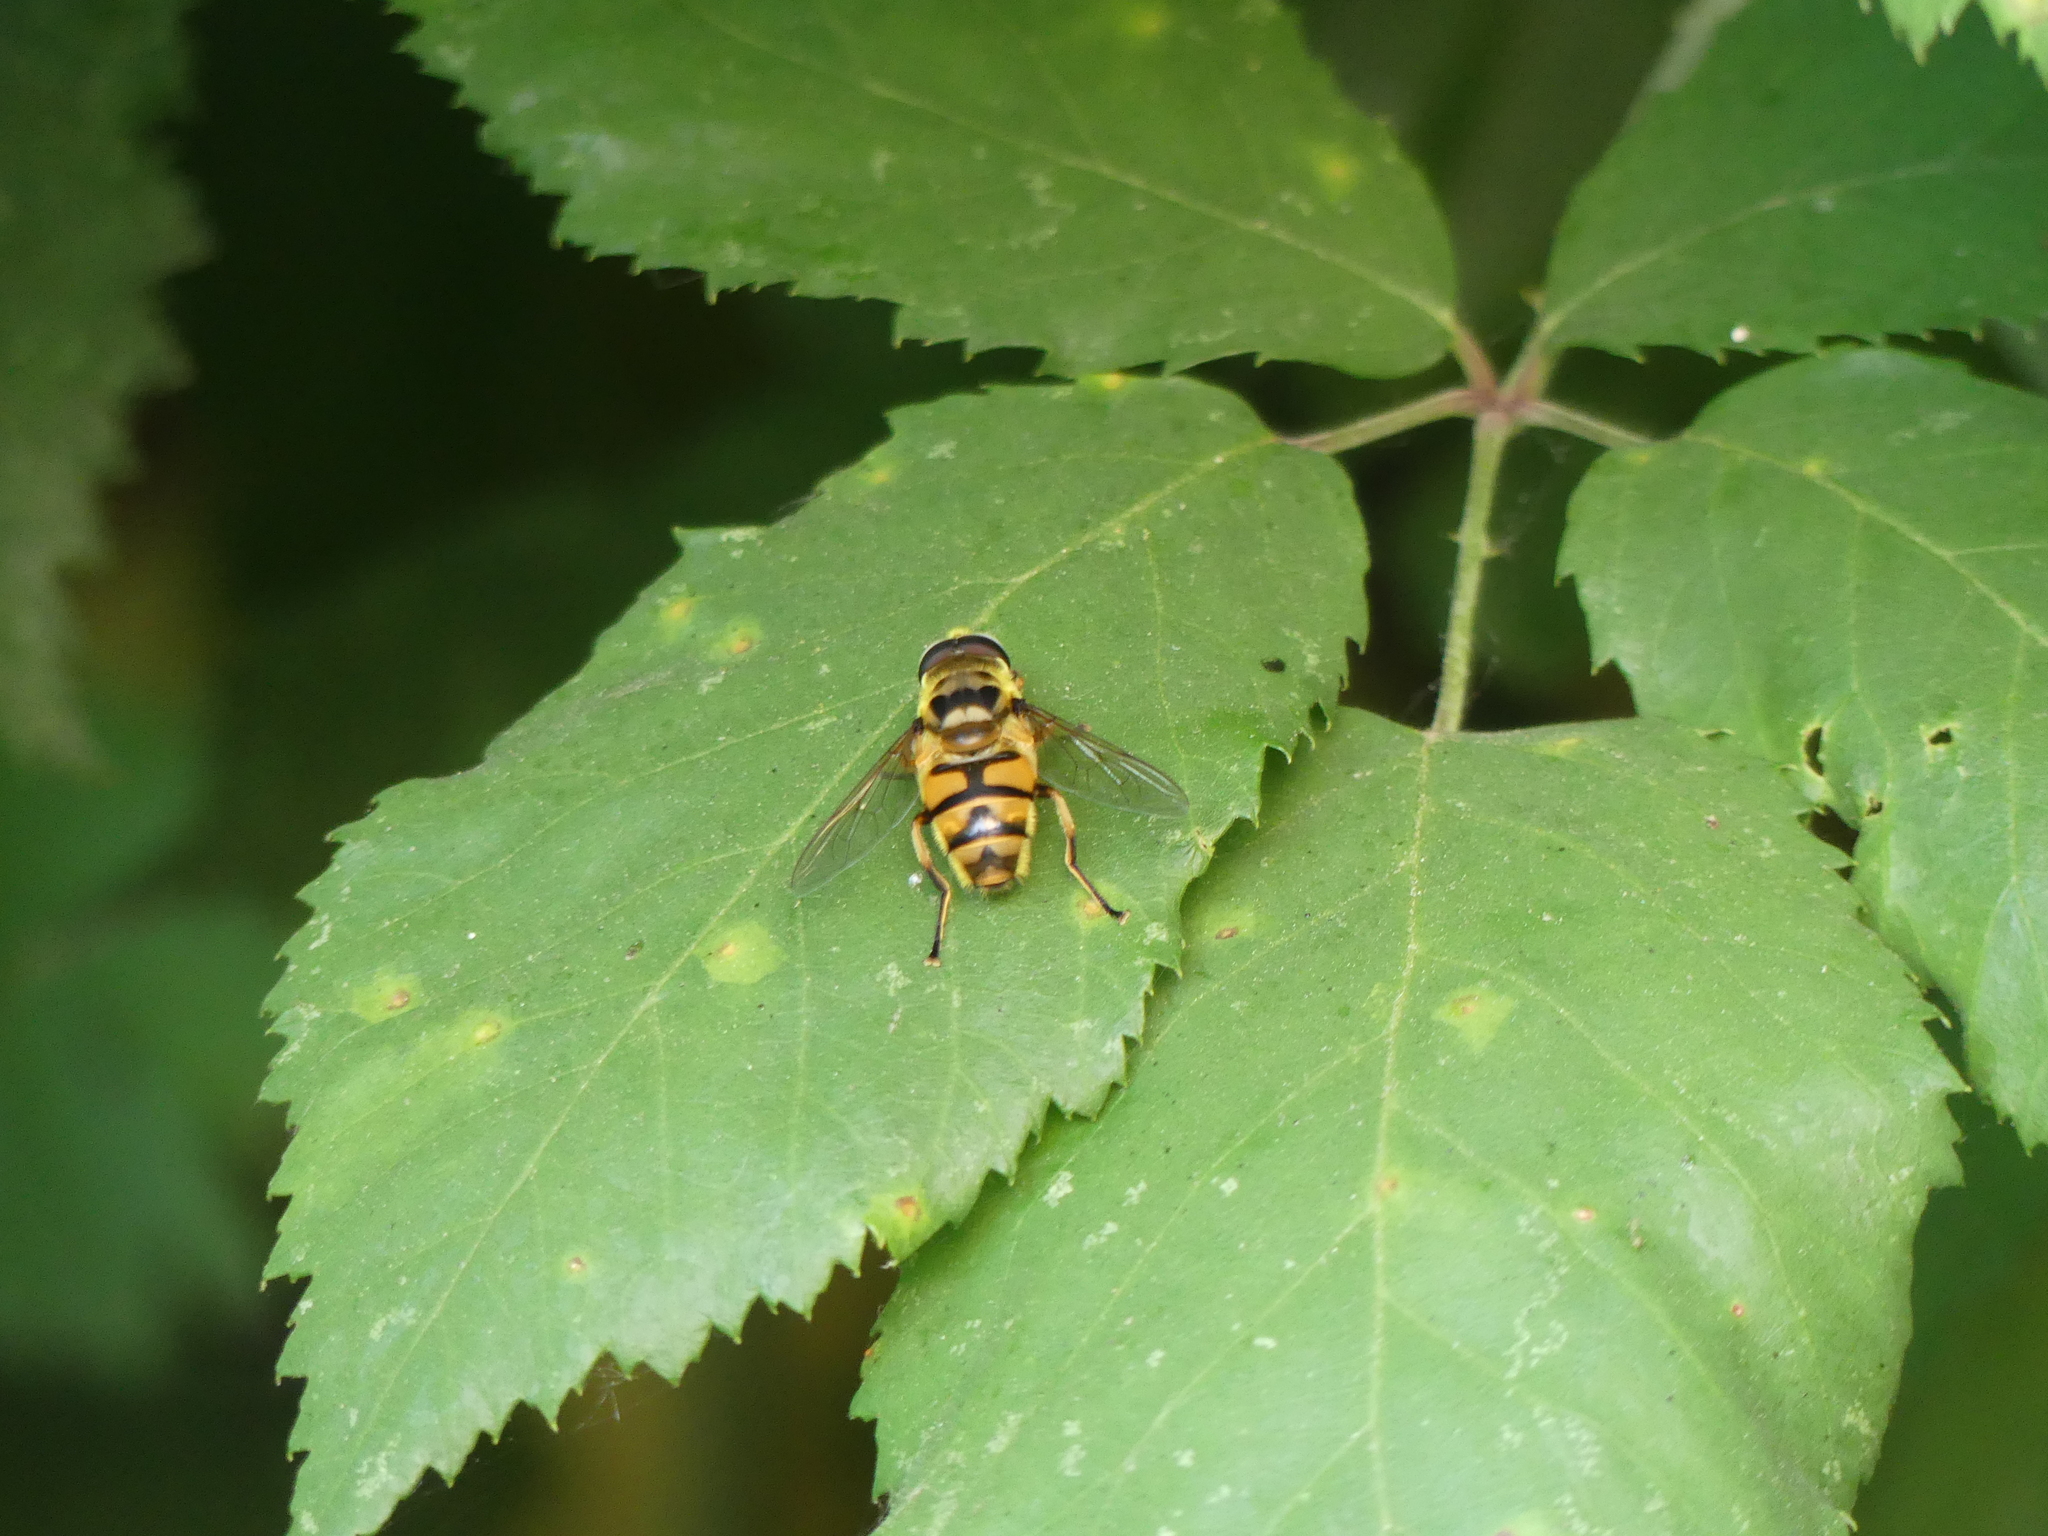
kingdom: Animalia
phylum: Arthropoda
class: Insecta
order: Diptera
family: Syrphidae
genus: Myathropa
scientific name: Myathropa florea
